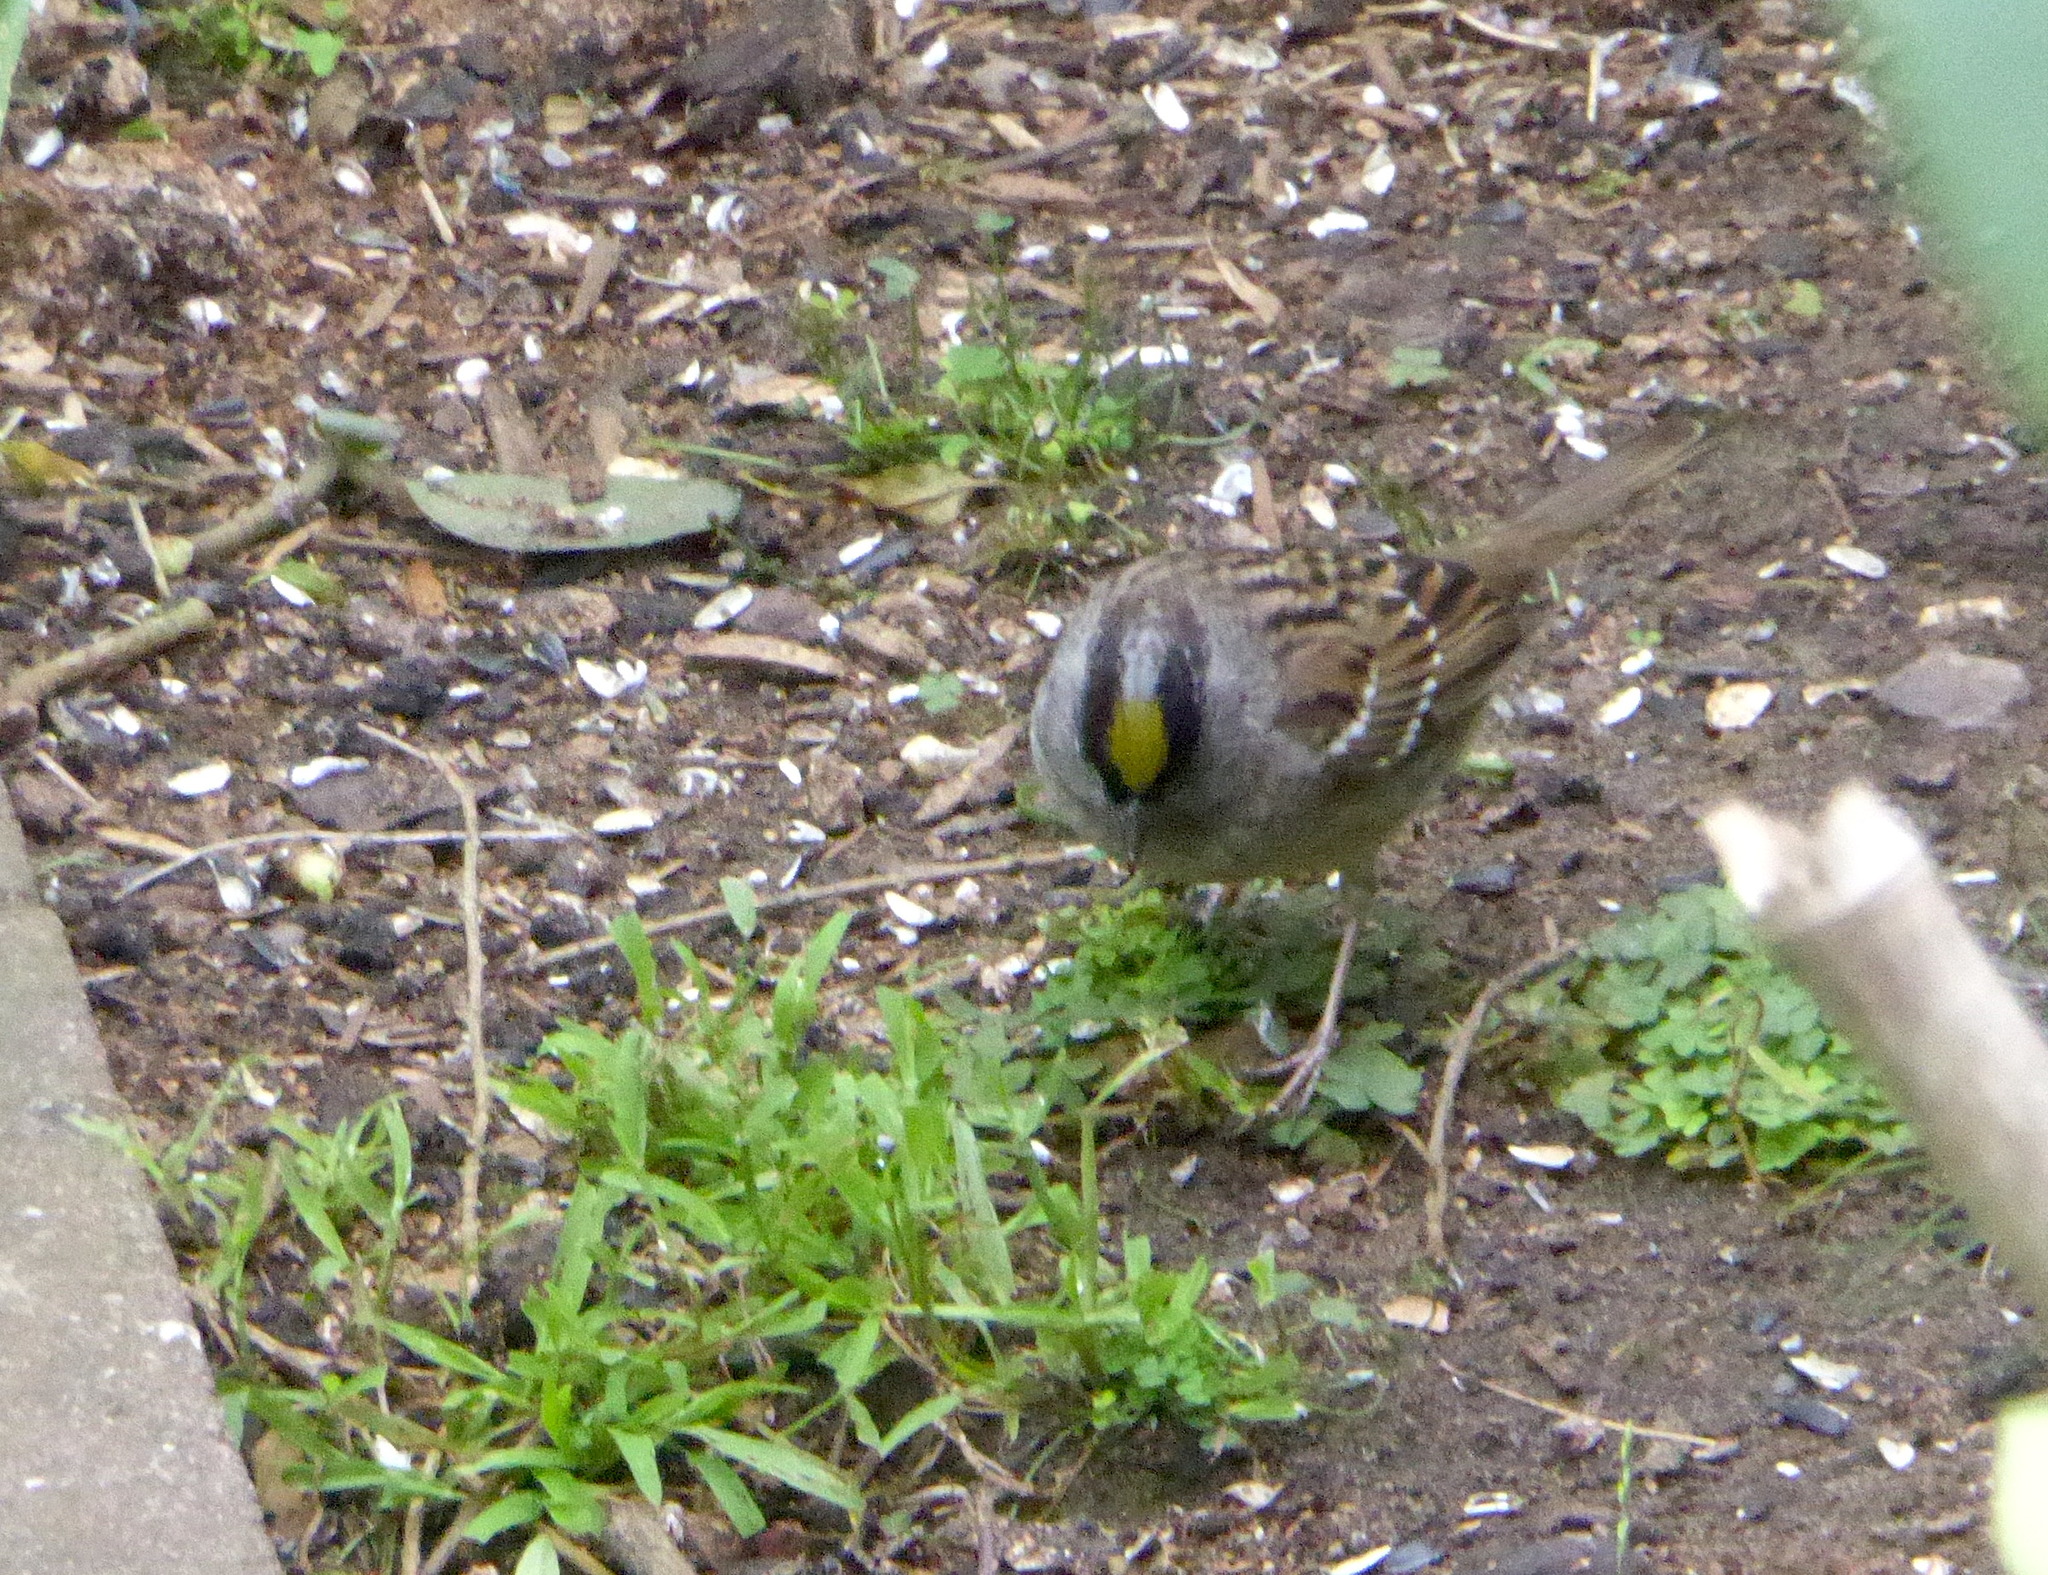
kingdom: Animalia
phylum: Chordata
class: Aves
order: Passeriformes
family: Passerellidae
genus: Zonotrichia
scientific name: Zonotrichia atricapilla
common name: Golden-crowned sparrow
